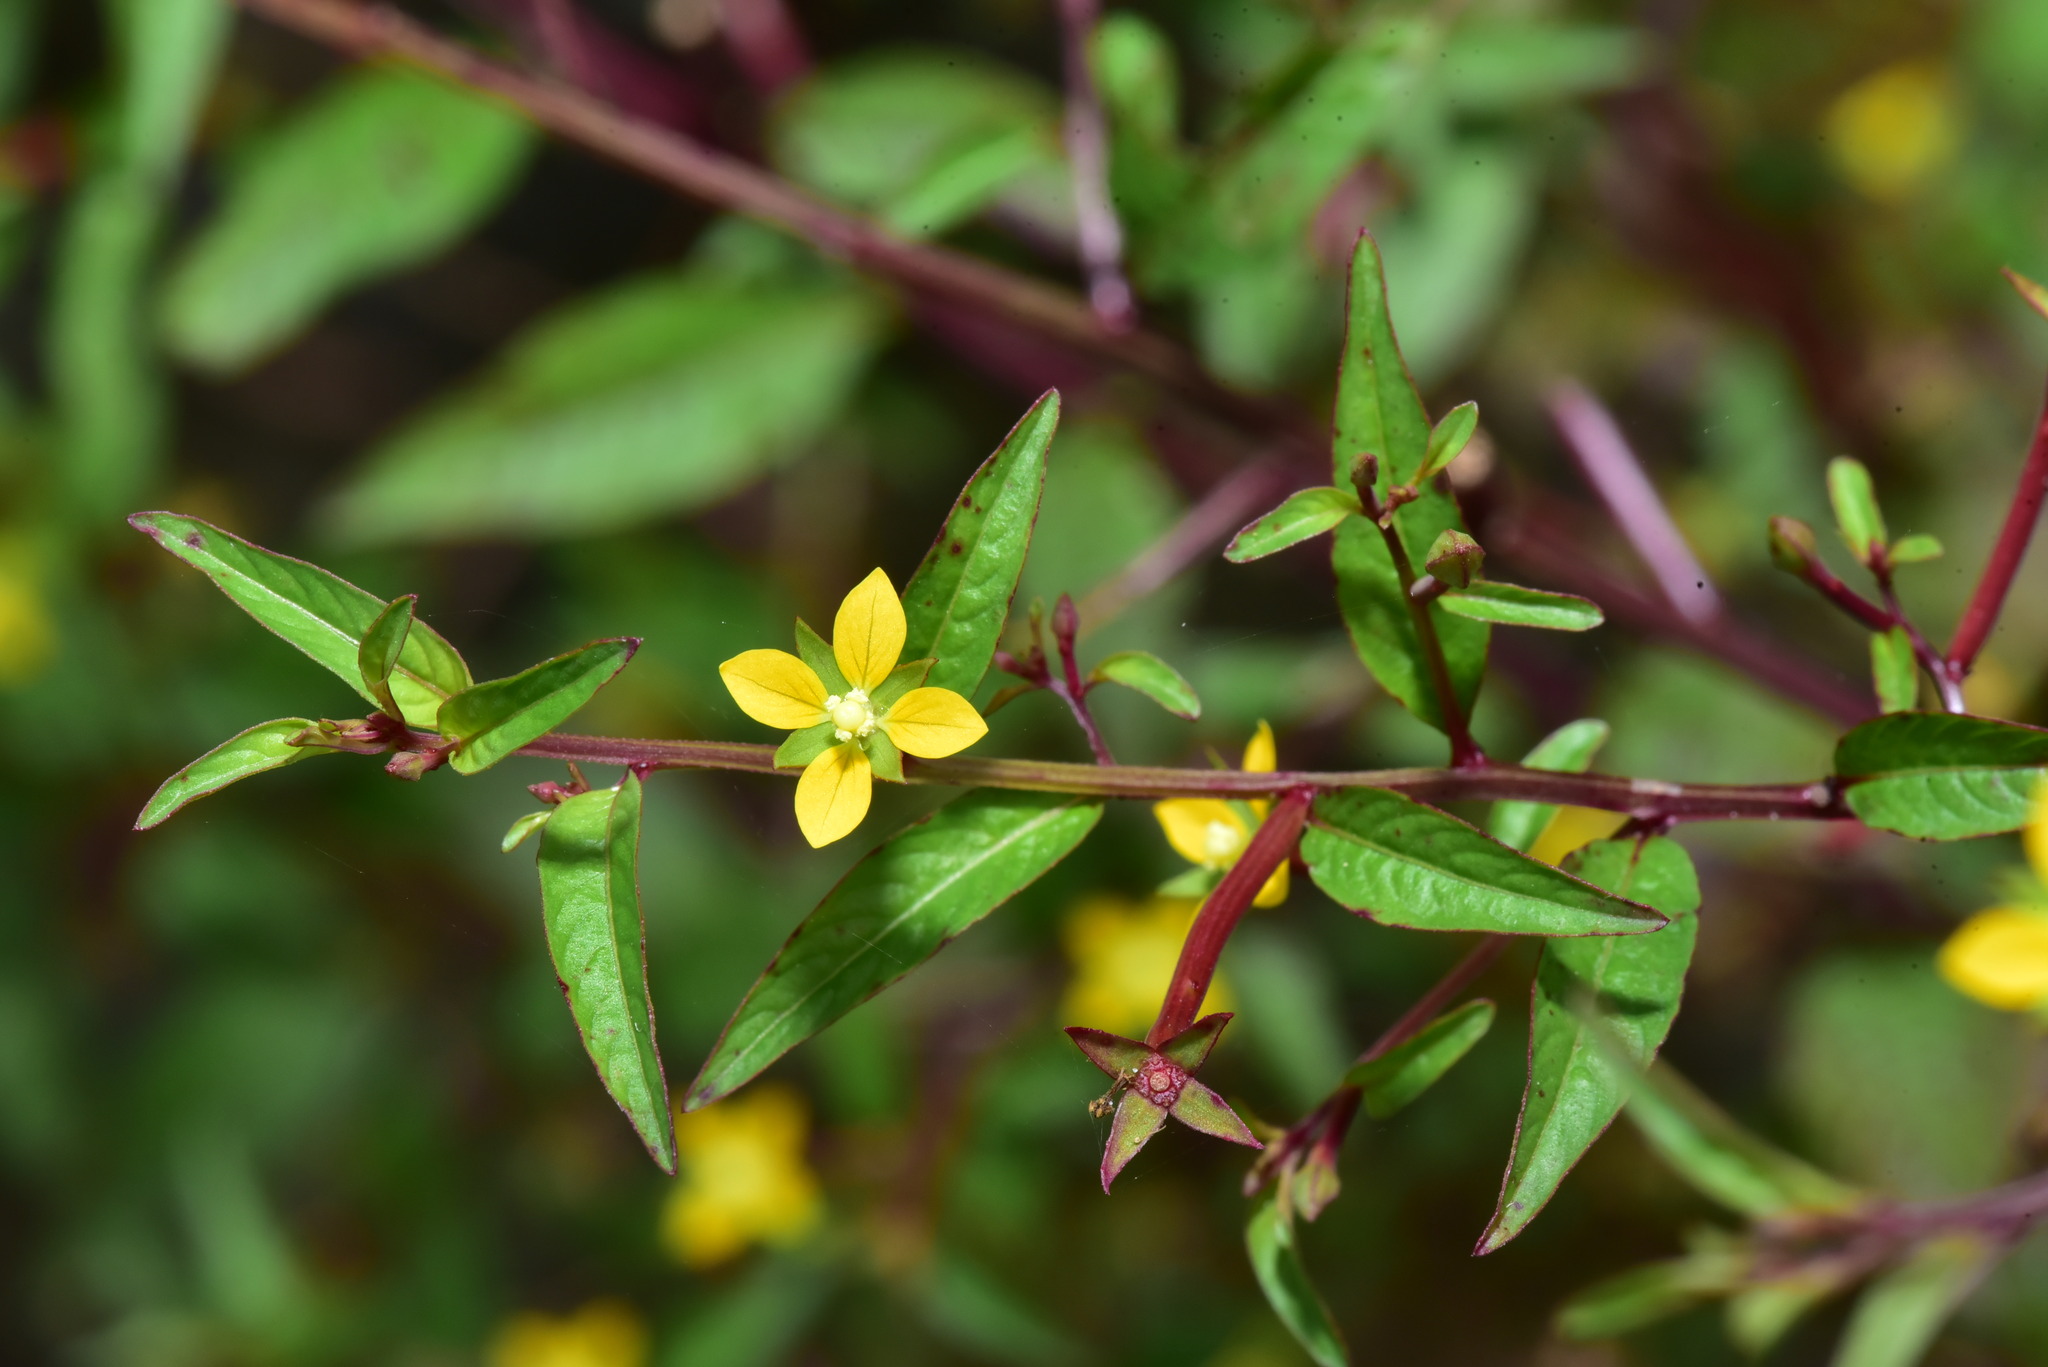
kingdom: Plantae
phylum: Tracheophyta
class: Magnoliopsida
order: Myrtales
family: Onagraceae
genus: Ludwigia
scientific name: Ludwigia hyssopifolia
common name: Linear leaf water primrose
